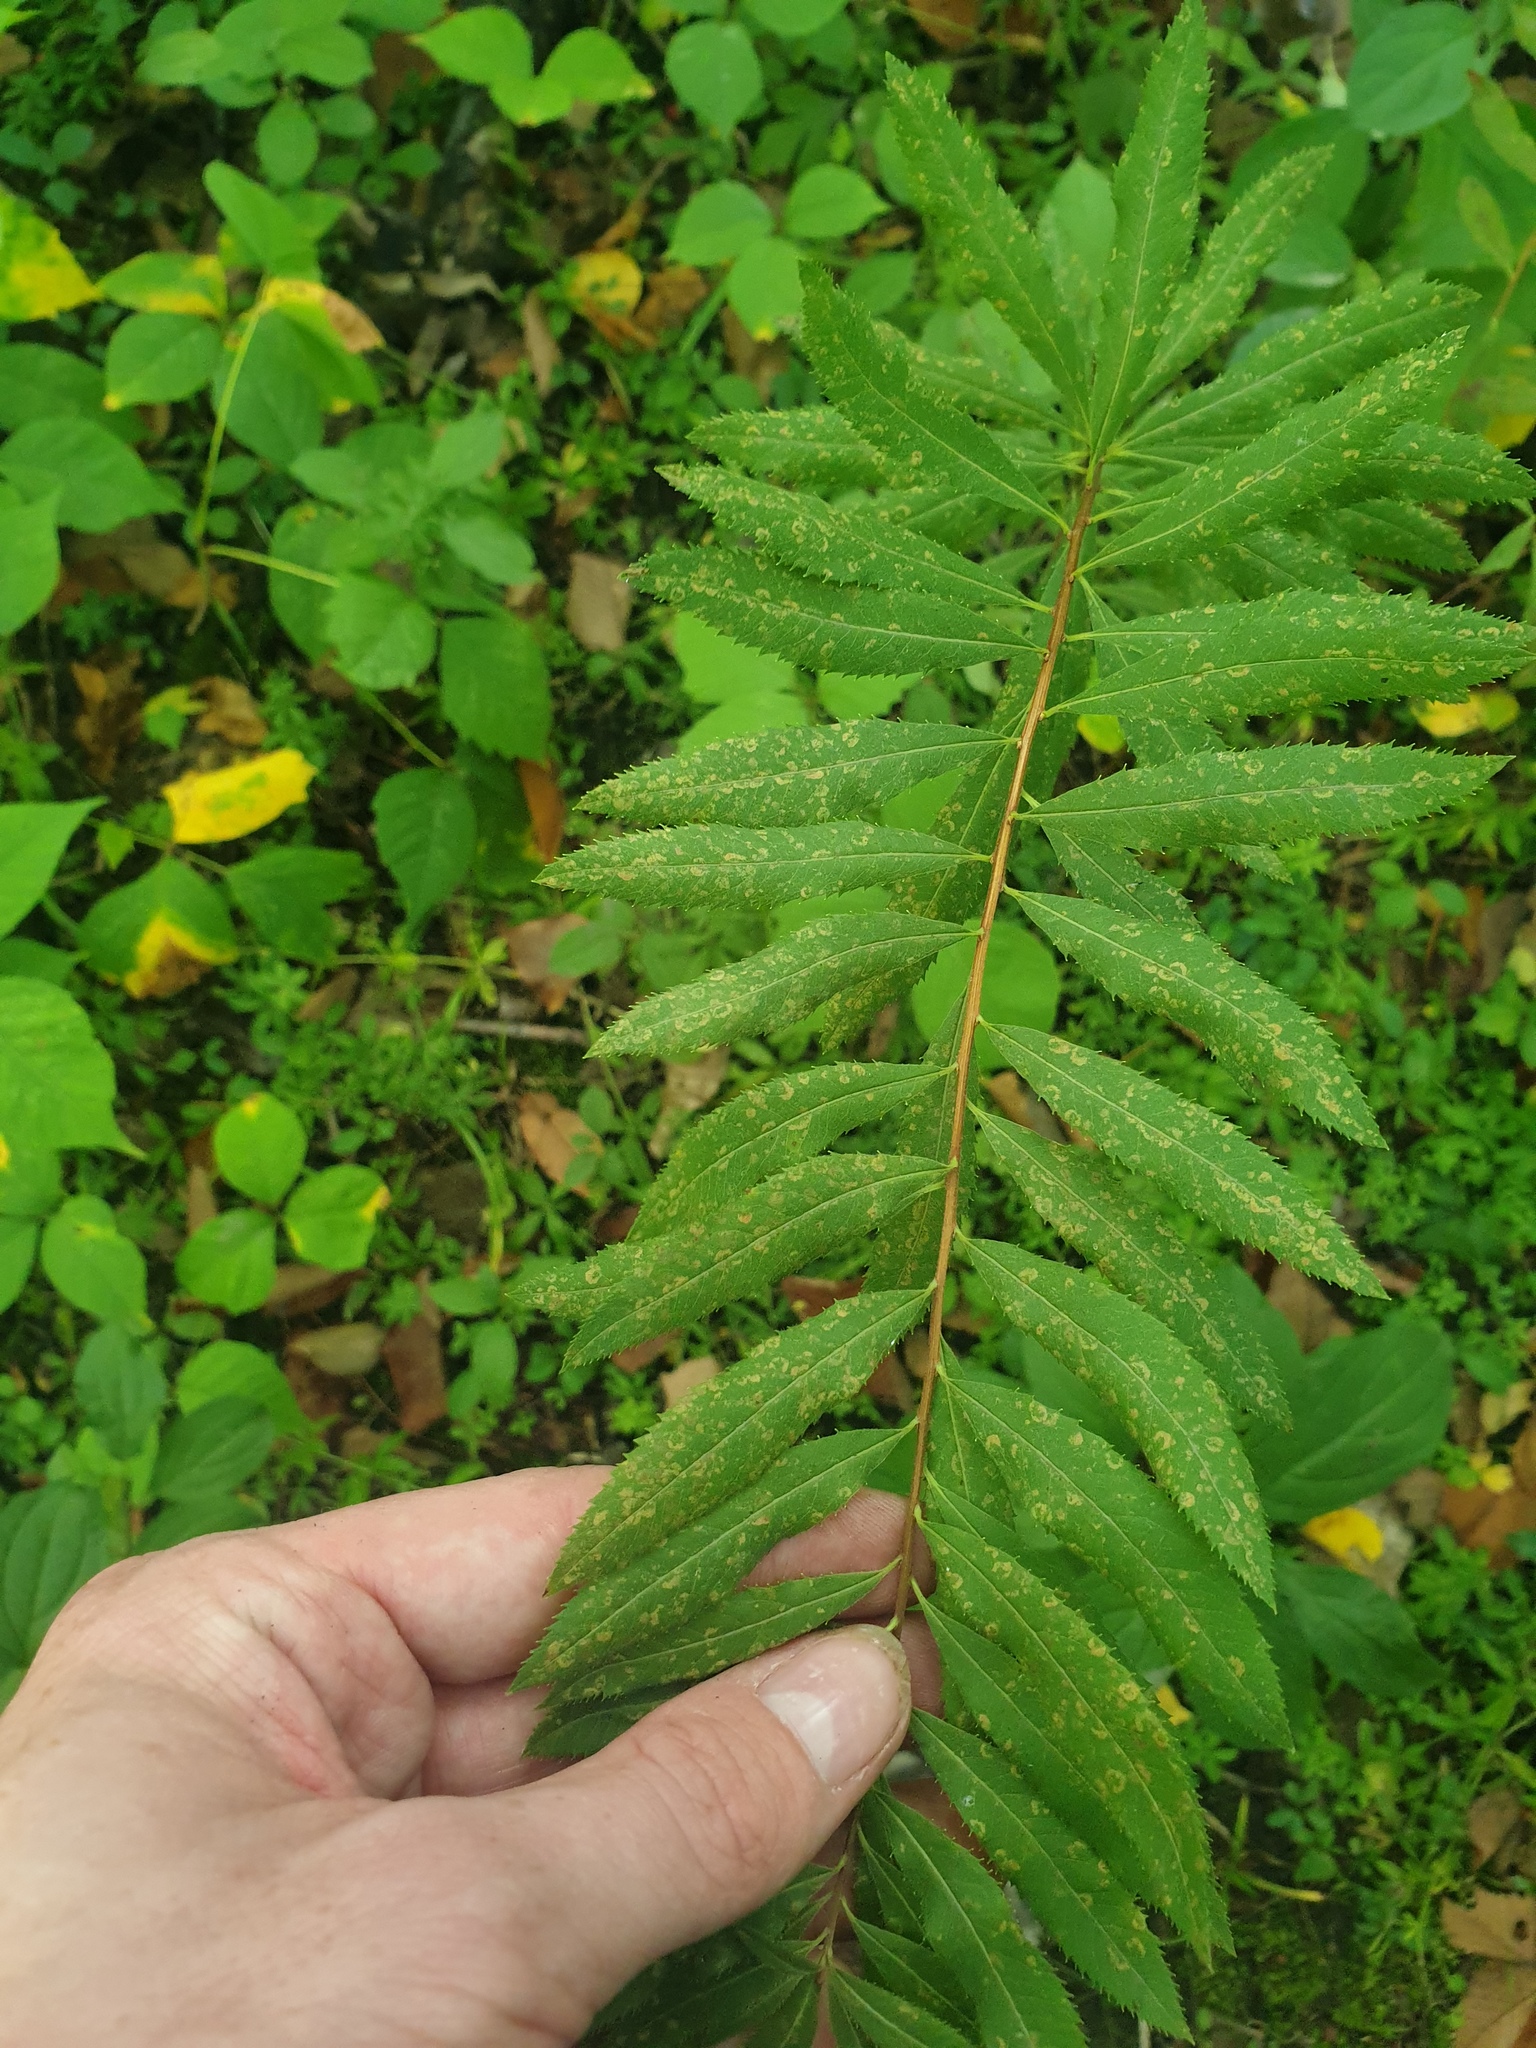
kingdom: Plantae
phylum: Tracheophyta
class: Magnoliopsida
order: Rosales
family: Rosaceae
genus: Spiraea
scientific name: Spiraea alba
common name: Pale bridewort
